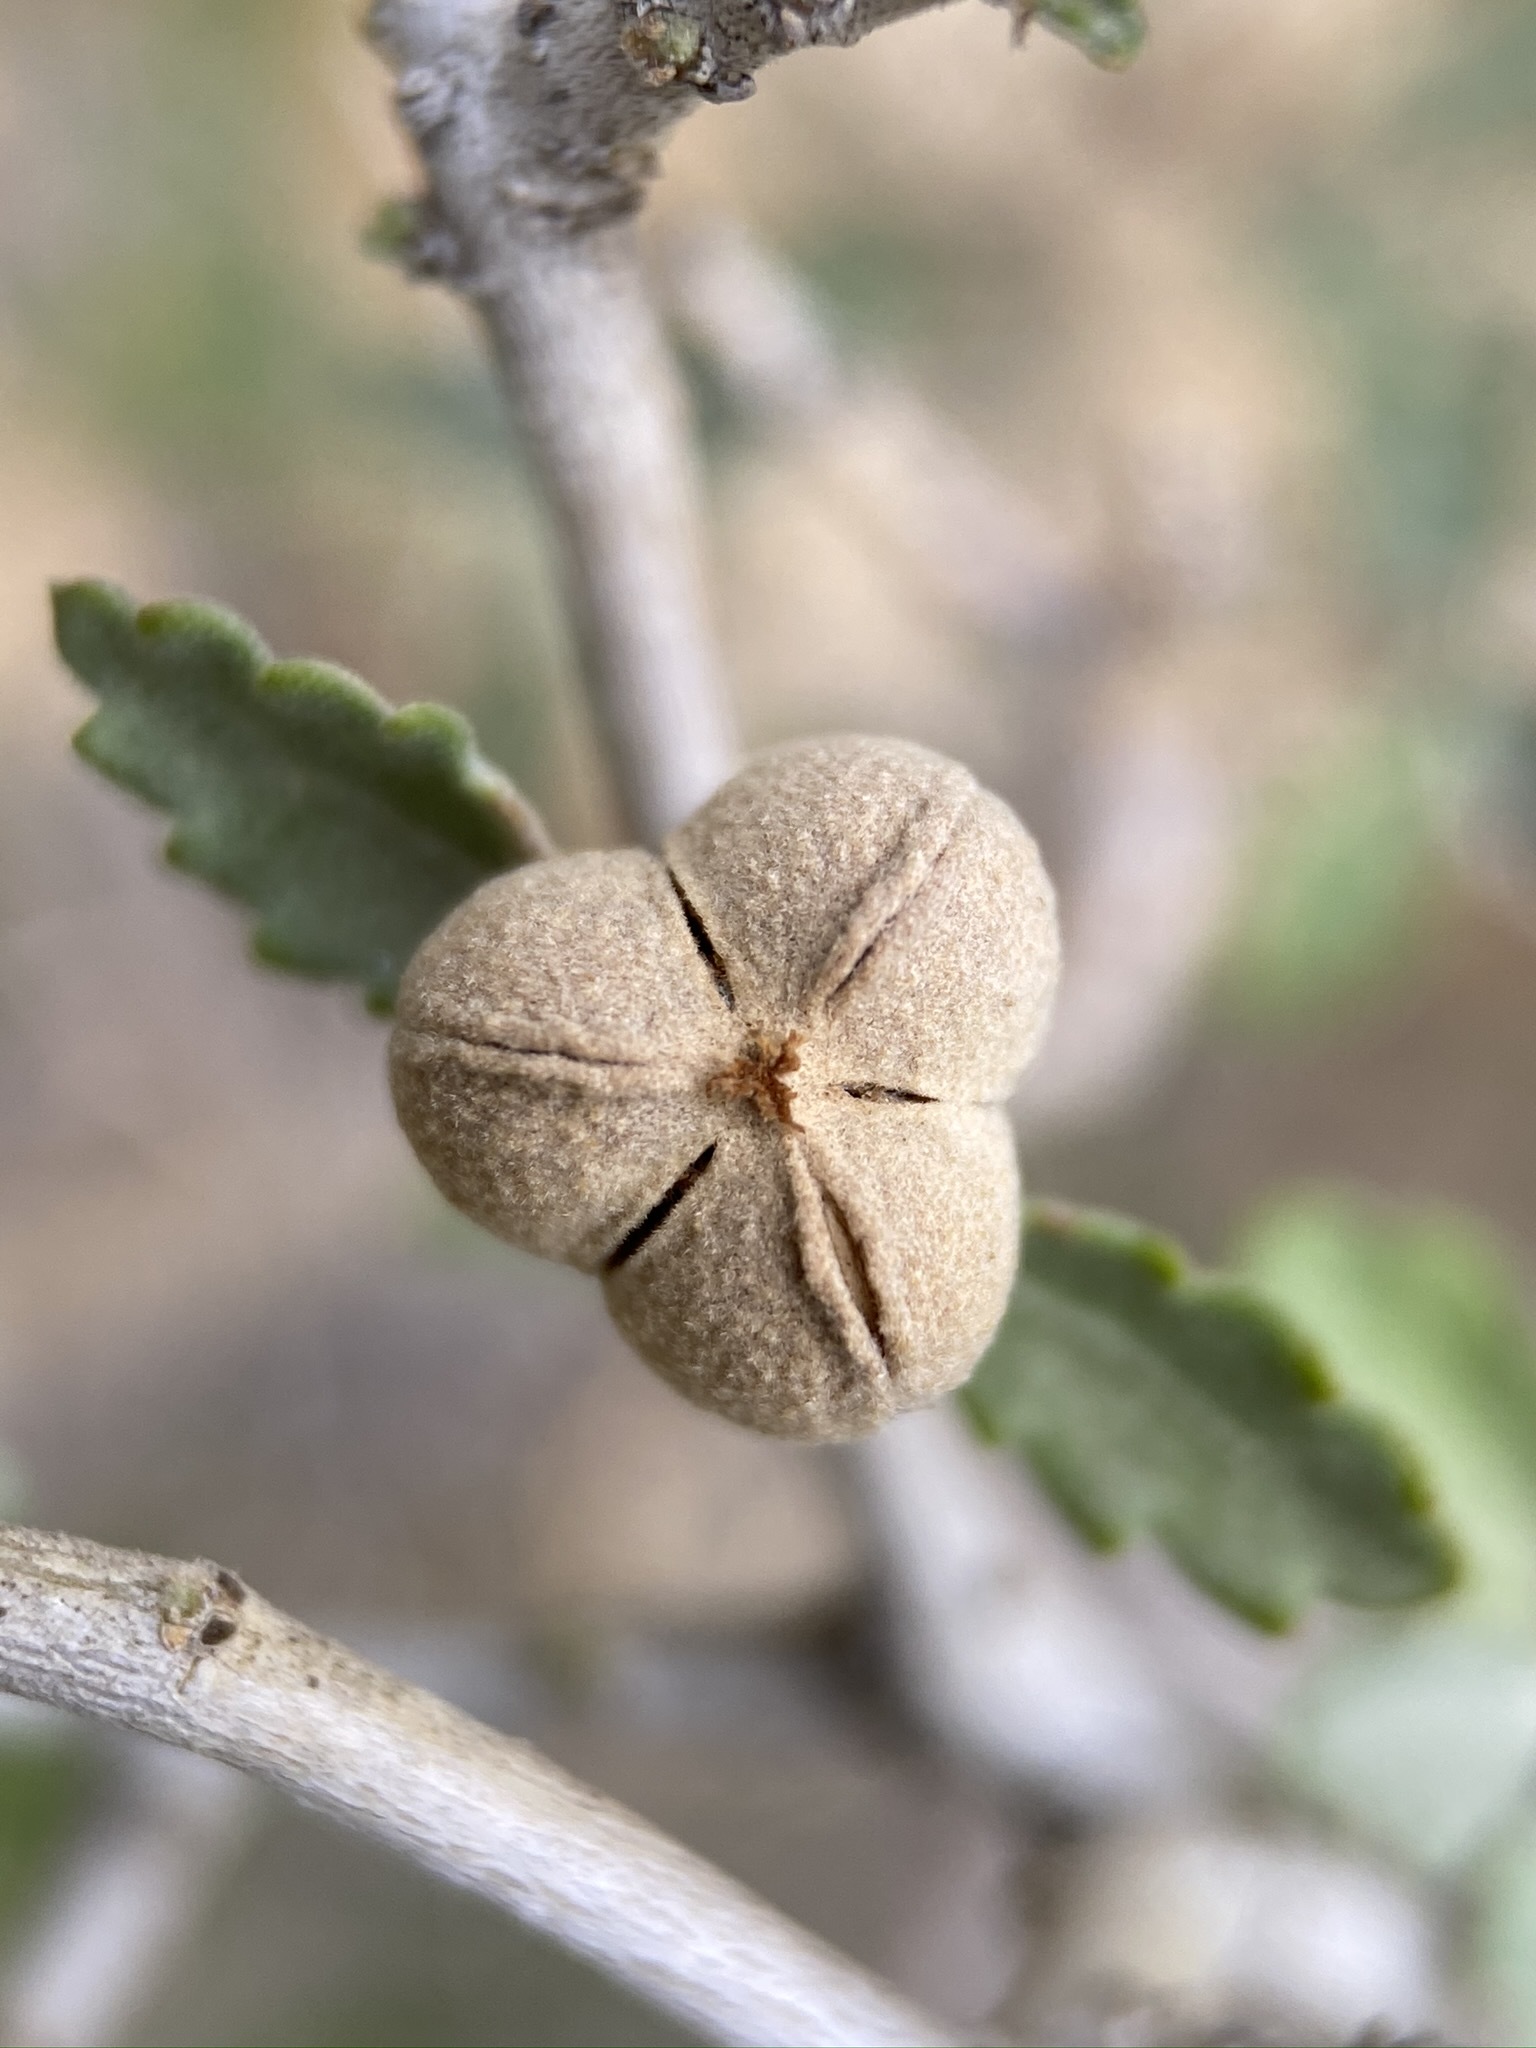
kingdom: Plantae
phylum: Tracheophyta
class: Magnoliopsida
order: Malpighiales
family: Euphorbiaceae
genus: Bernardia
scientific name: Bernardia incana
